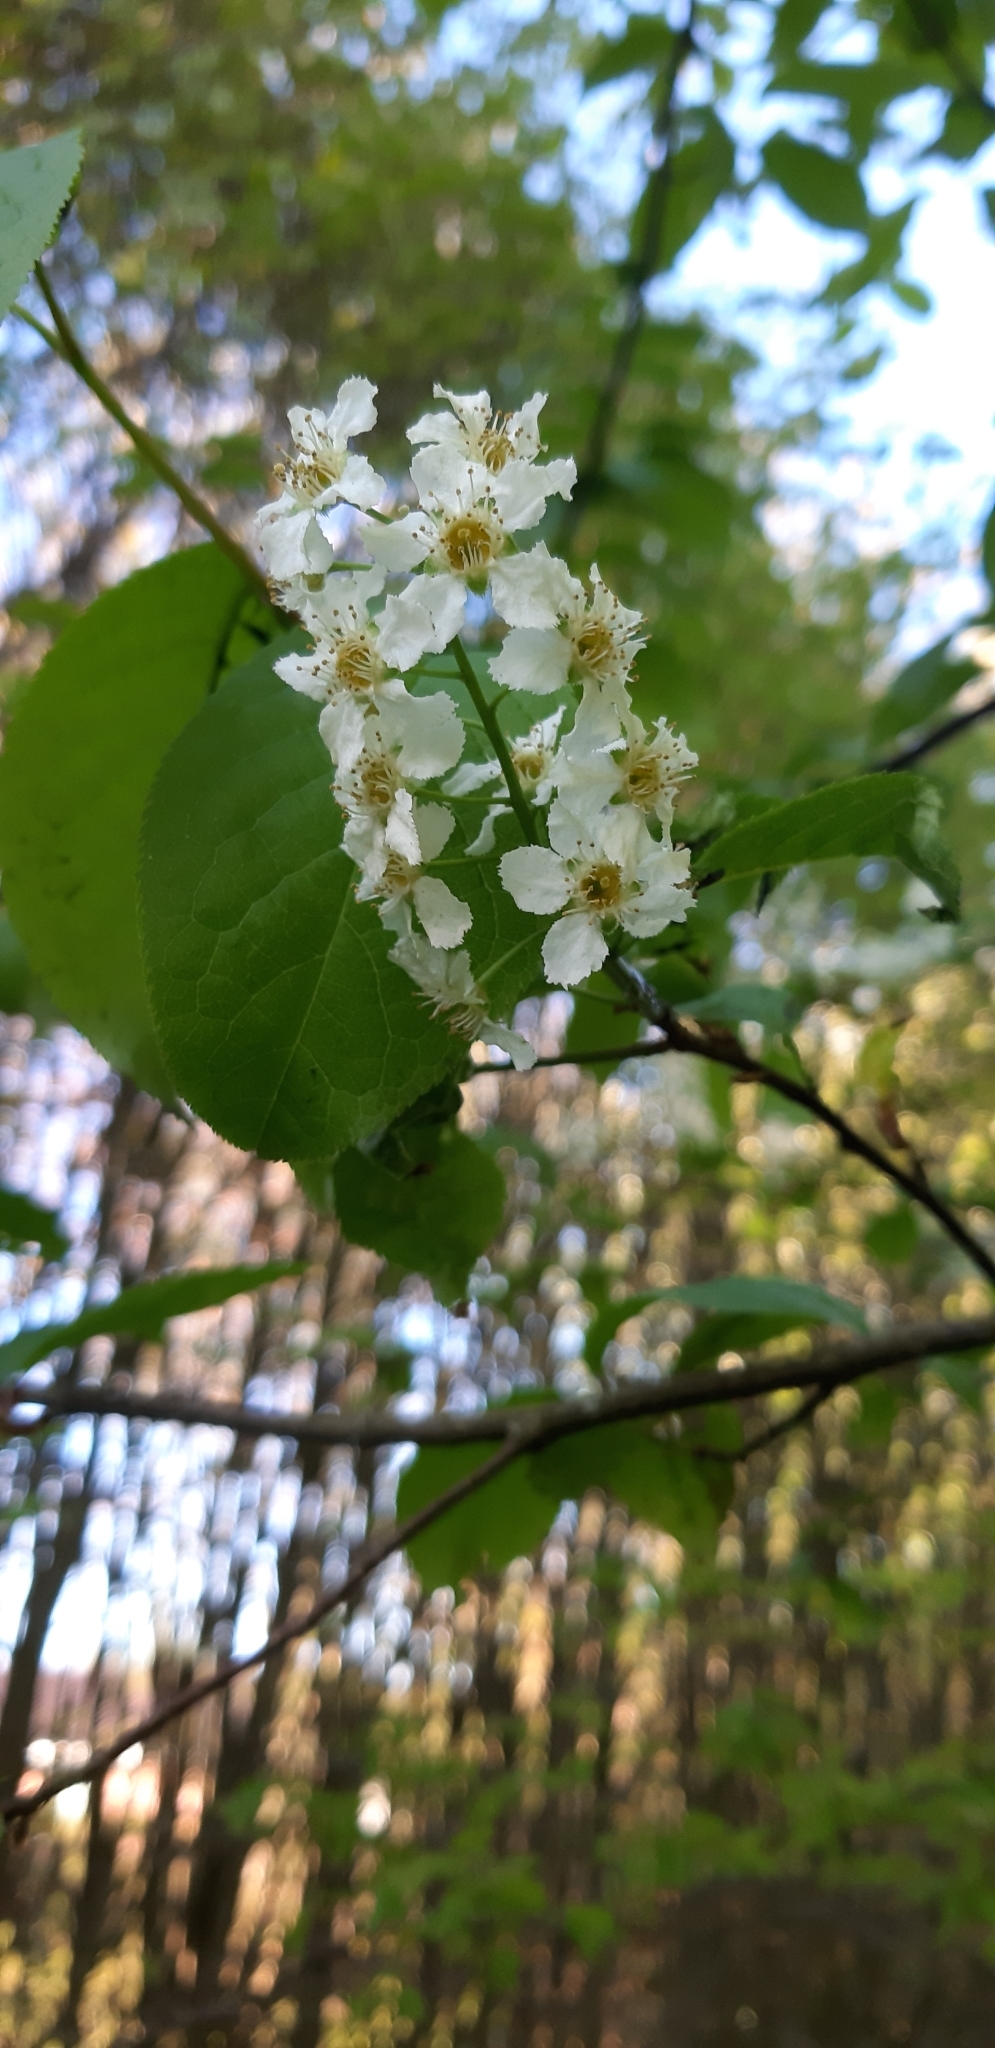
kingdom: Plantae
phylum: Tracheophyta
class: Magnoliopsida
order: Rosales
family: Rosaceae
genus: Prunus
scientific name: Prunus padus
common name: Bird cherry
